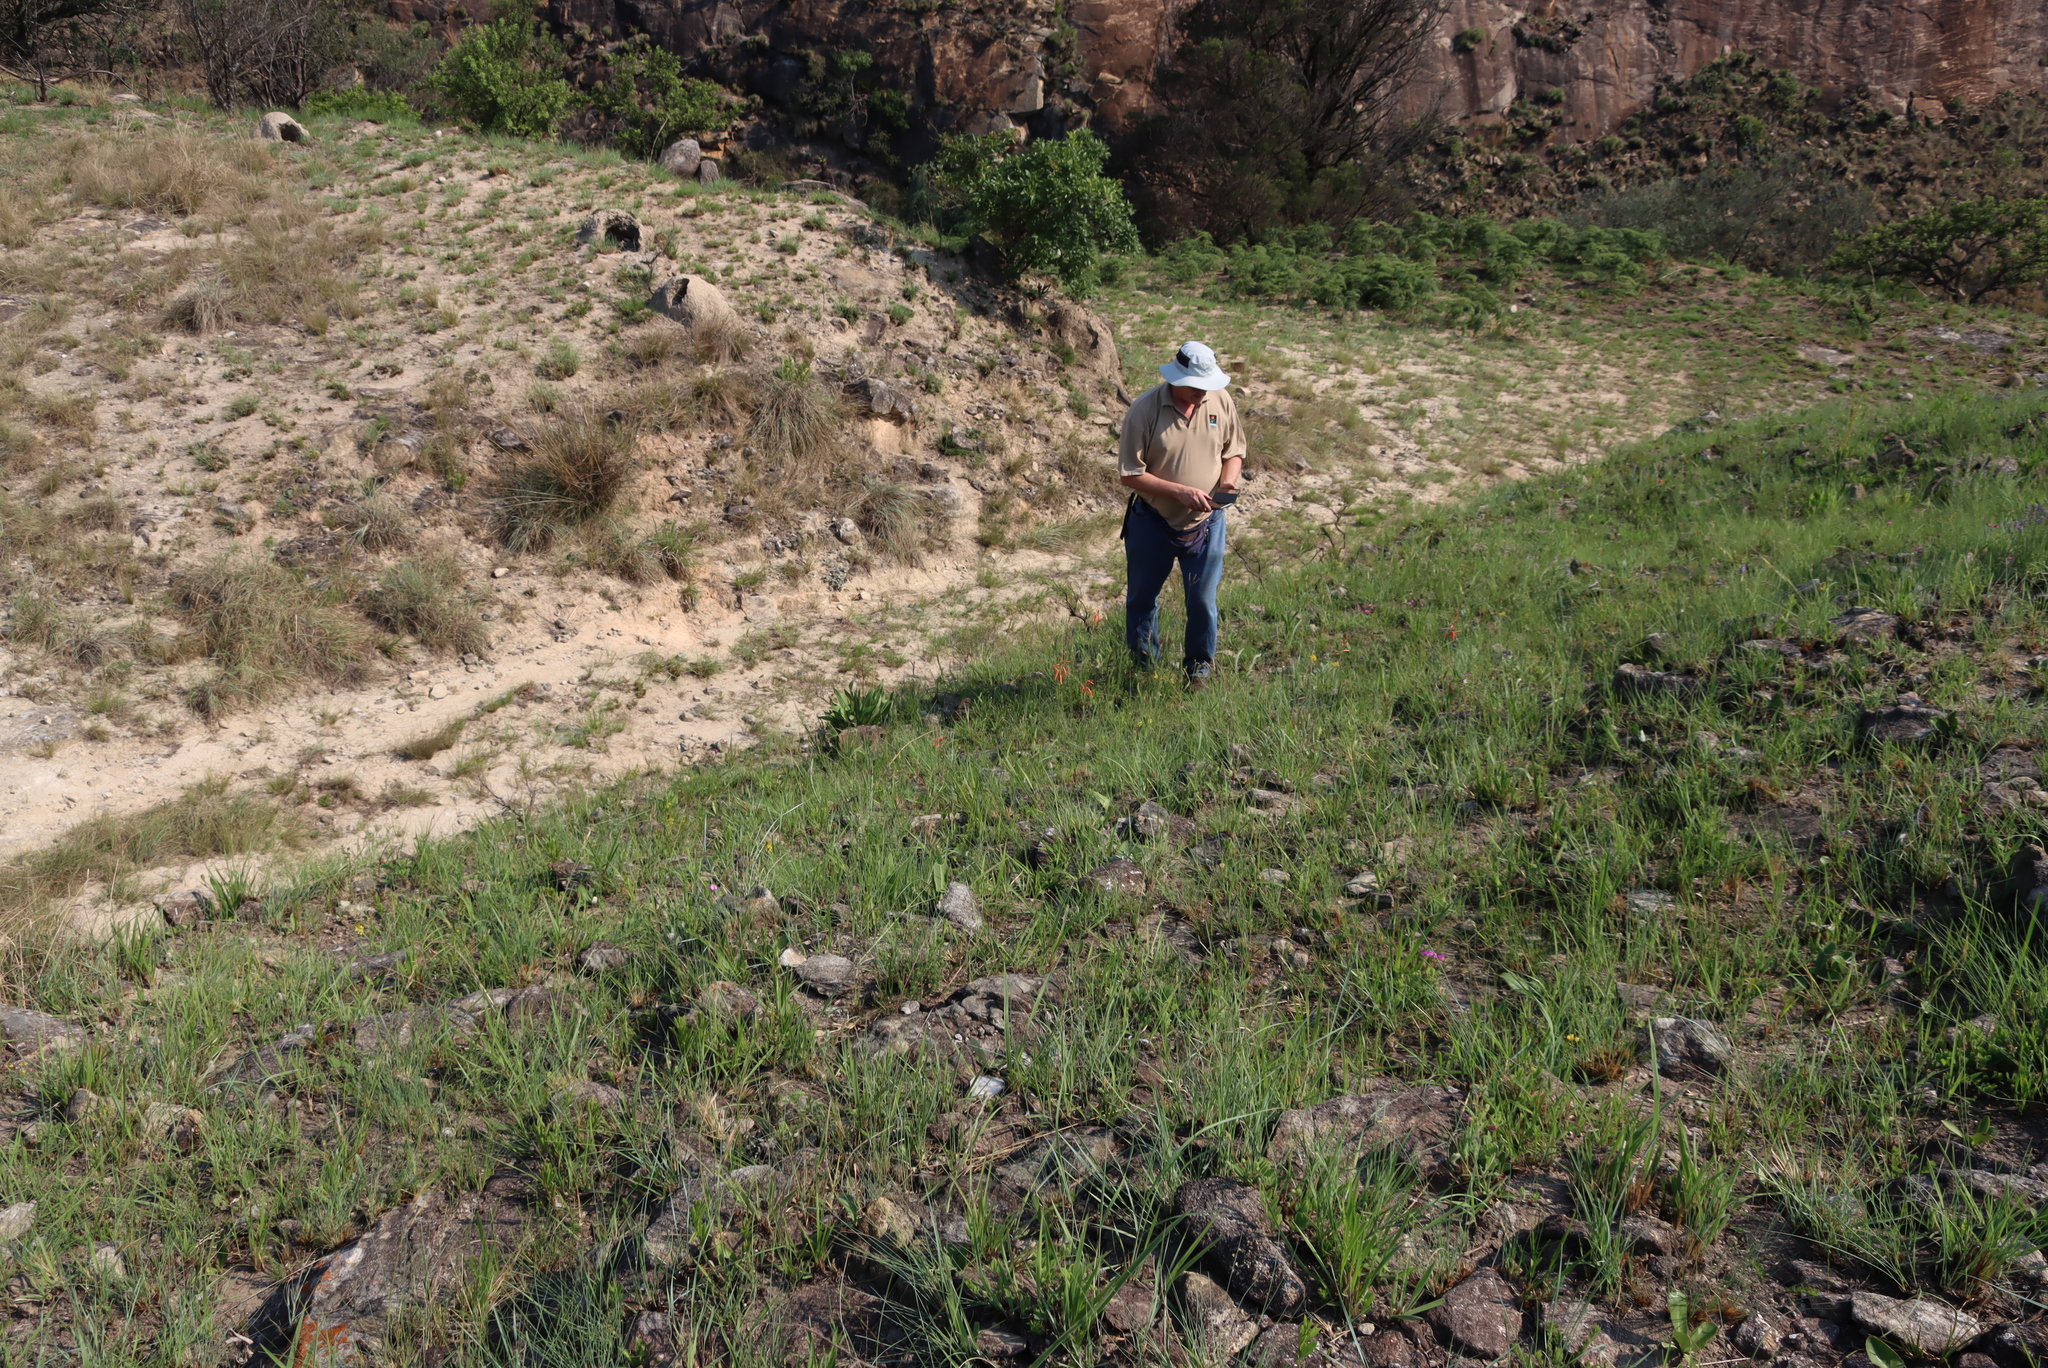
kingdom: Plantae
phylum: Tracheophyta
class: Liliopsida
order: Asparagales
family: Asphodelaceae
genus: Aloe
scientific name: Aloe kniphofioides
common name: Grass aloe
